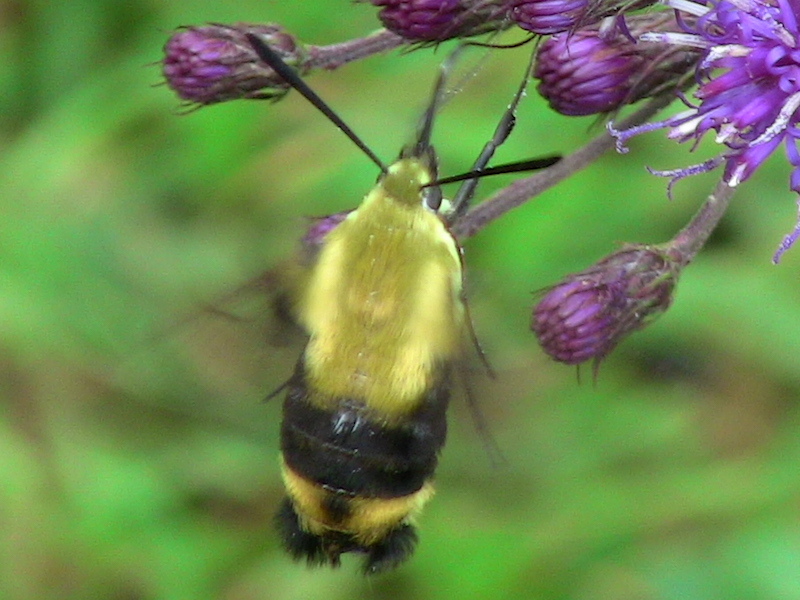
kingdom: Animalia
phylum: Arthropoda
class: Insecta
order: Lepidoptera
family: Sphingidae
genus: Hemaris
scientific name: Hemaris diffinis
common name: Bumblebee moth
